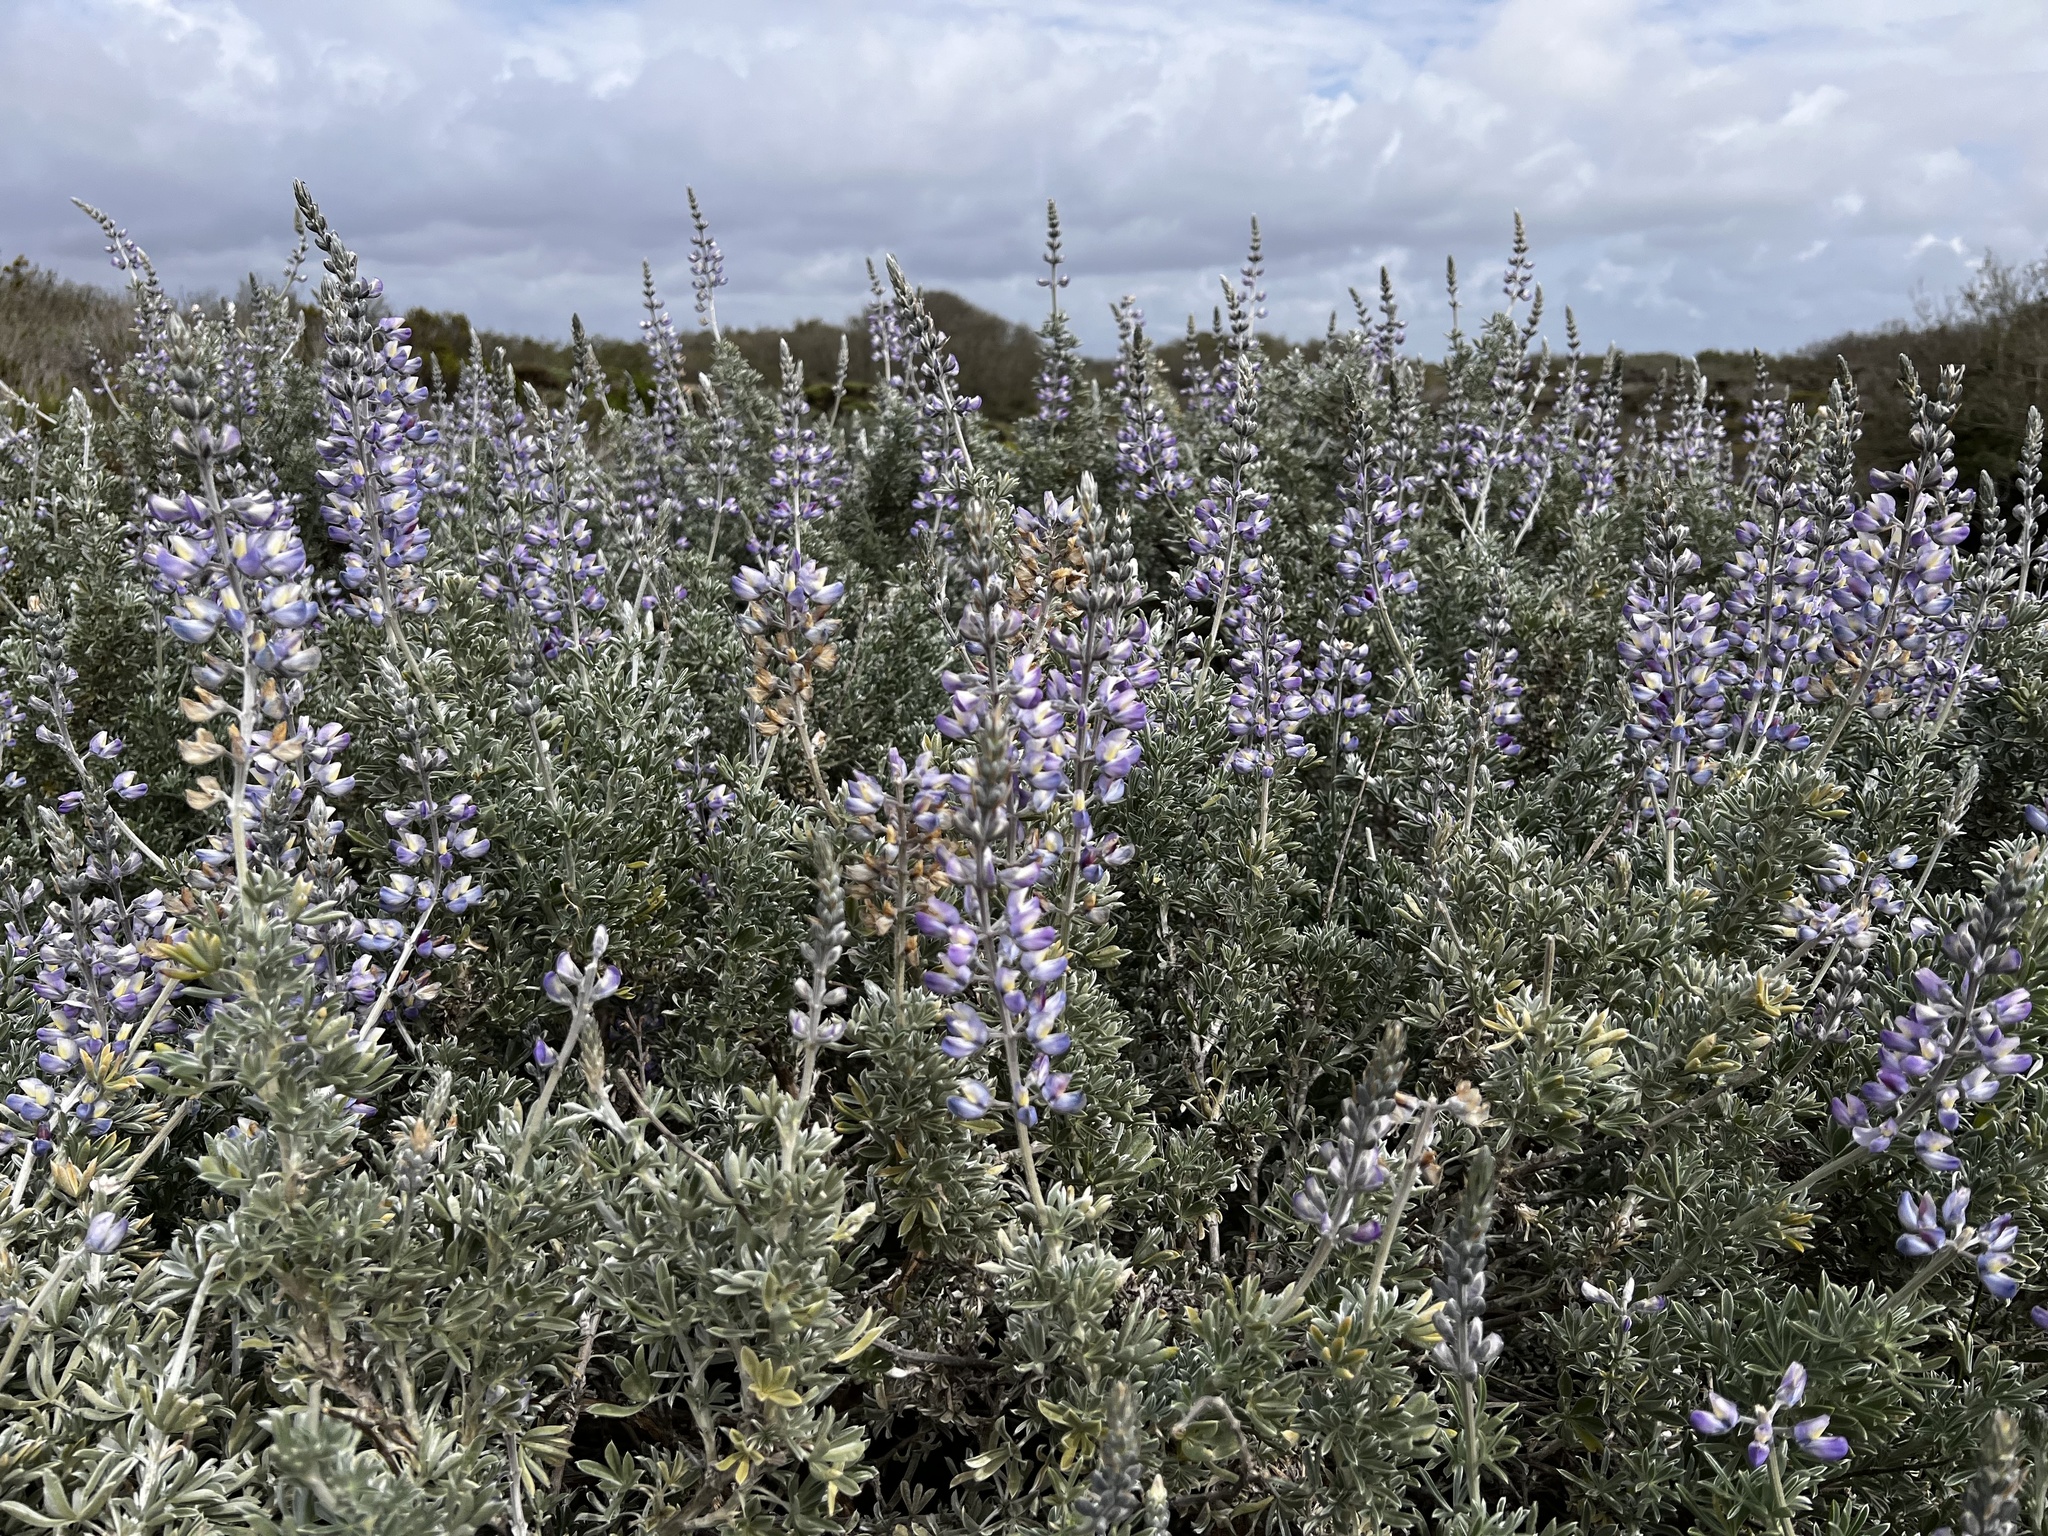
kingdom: Plantae
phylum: Tracheophyta
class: Magnoliopsida
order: Fabales
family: Fabaceae
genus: Lupinus
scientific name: Lupinus chamissonis
